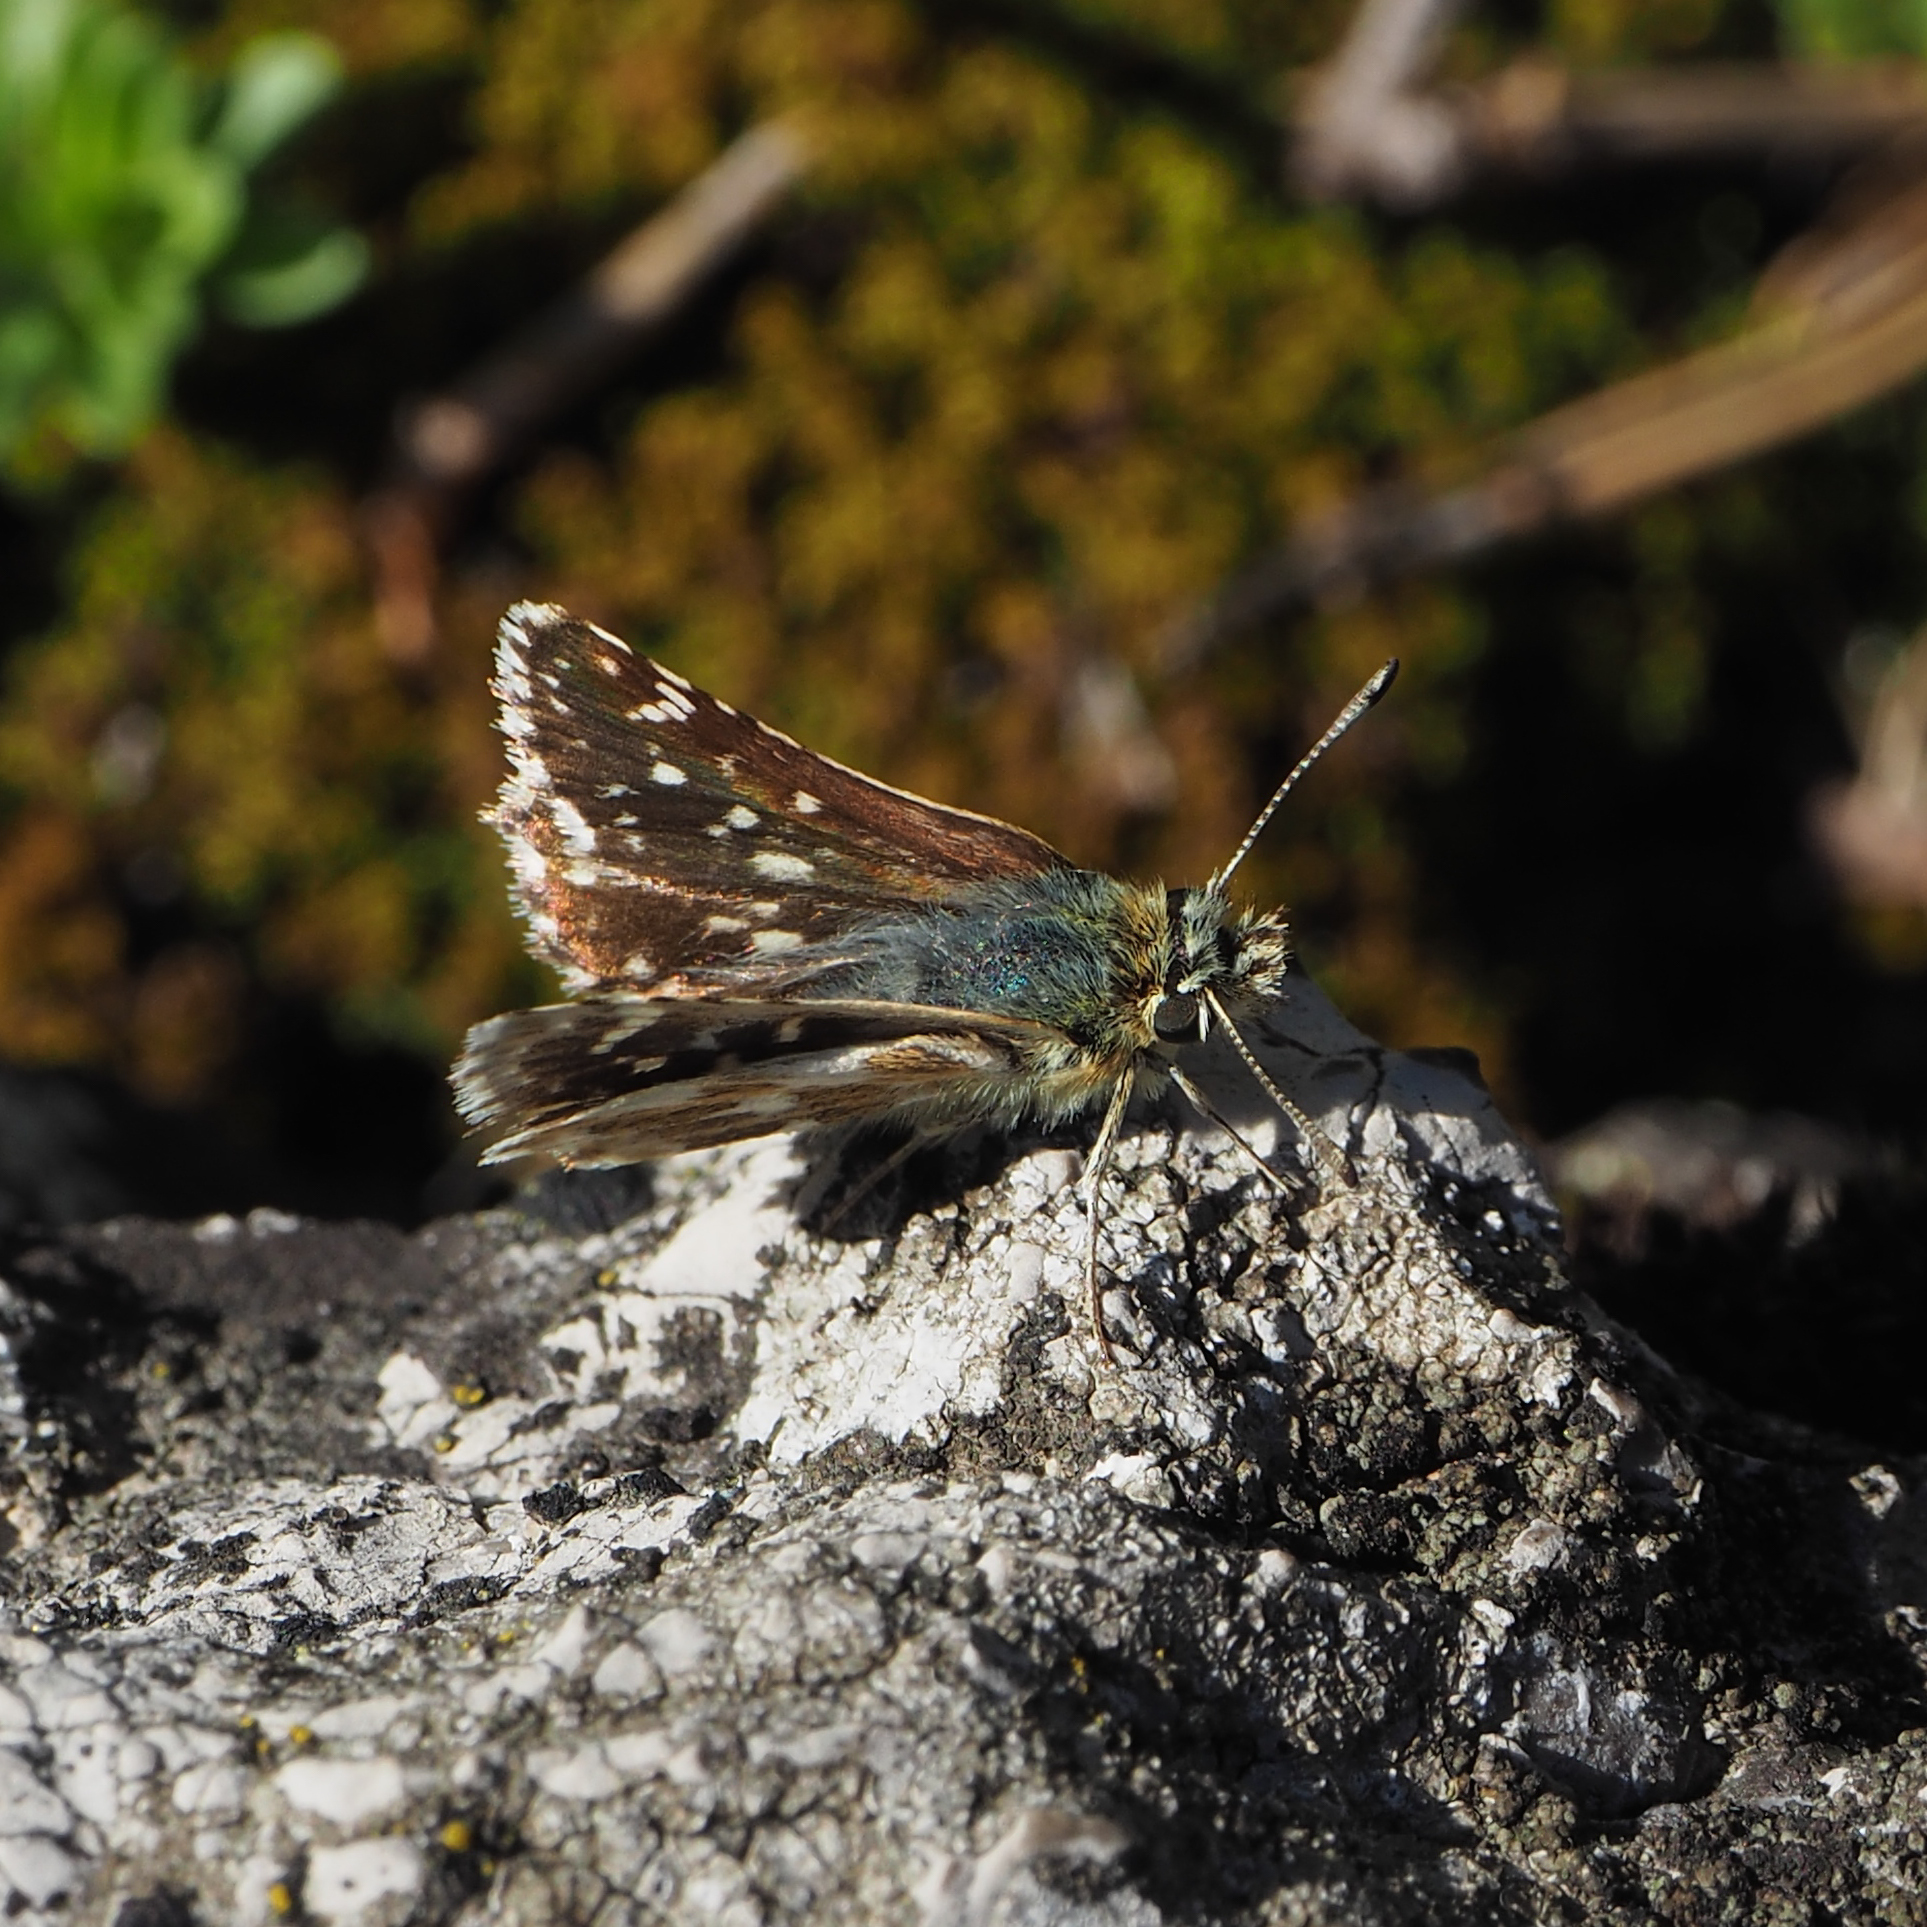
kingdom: Animalia
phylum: Arthropoda
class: Insecta
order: Lepidoptera
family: Hesperiidae
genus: Spialia
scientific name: Spialia sertorius
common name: Red underwing skipper
